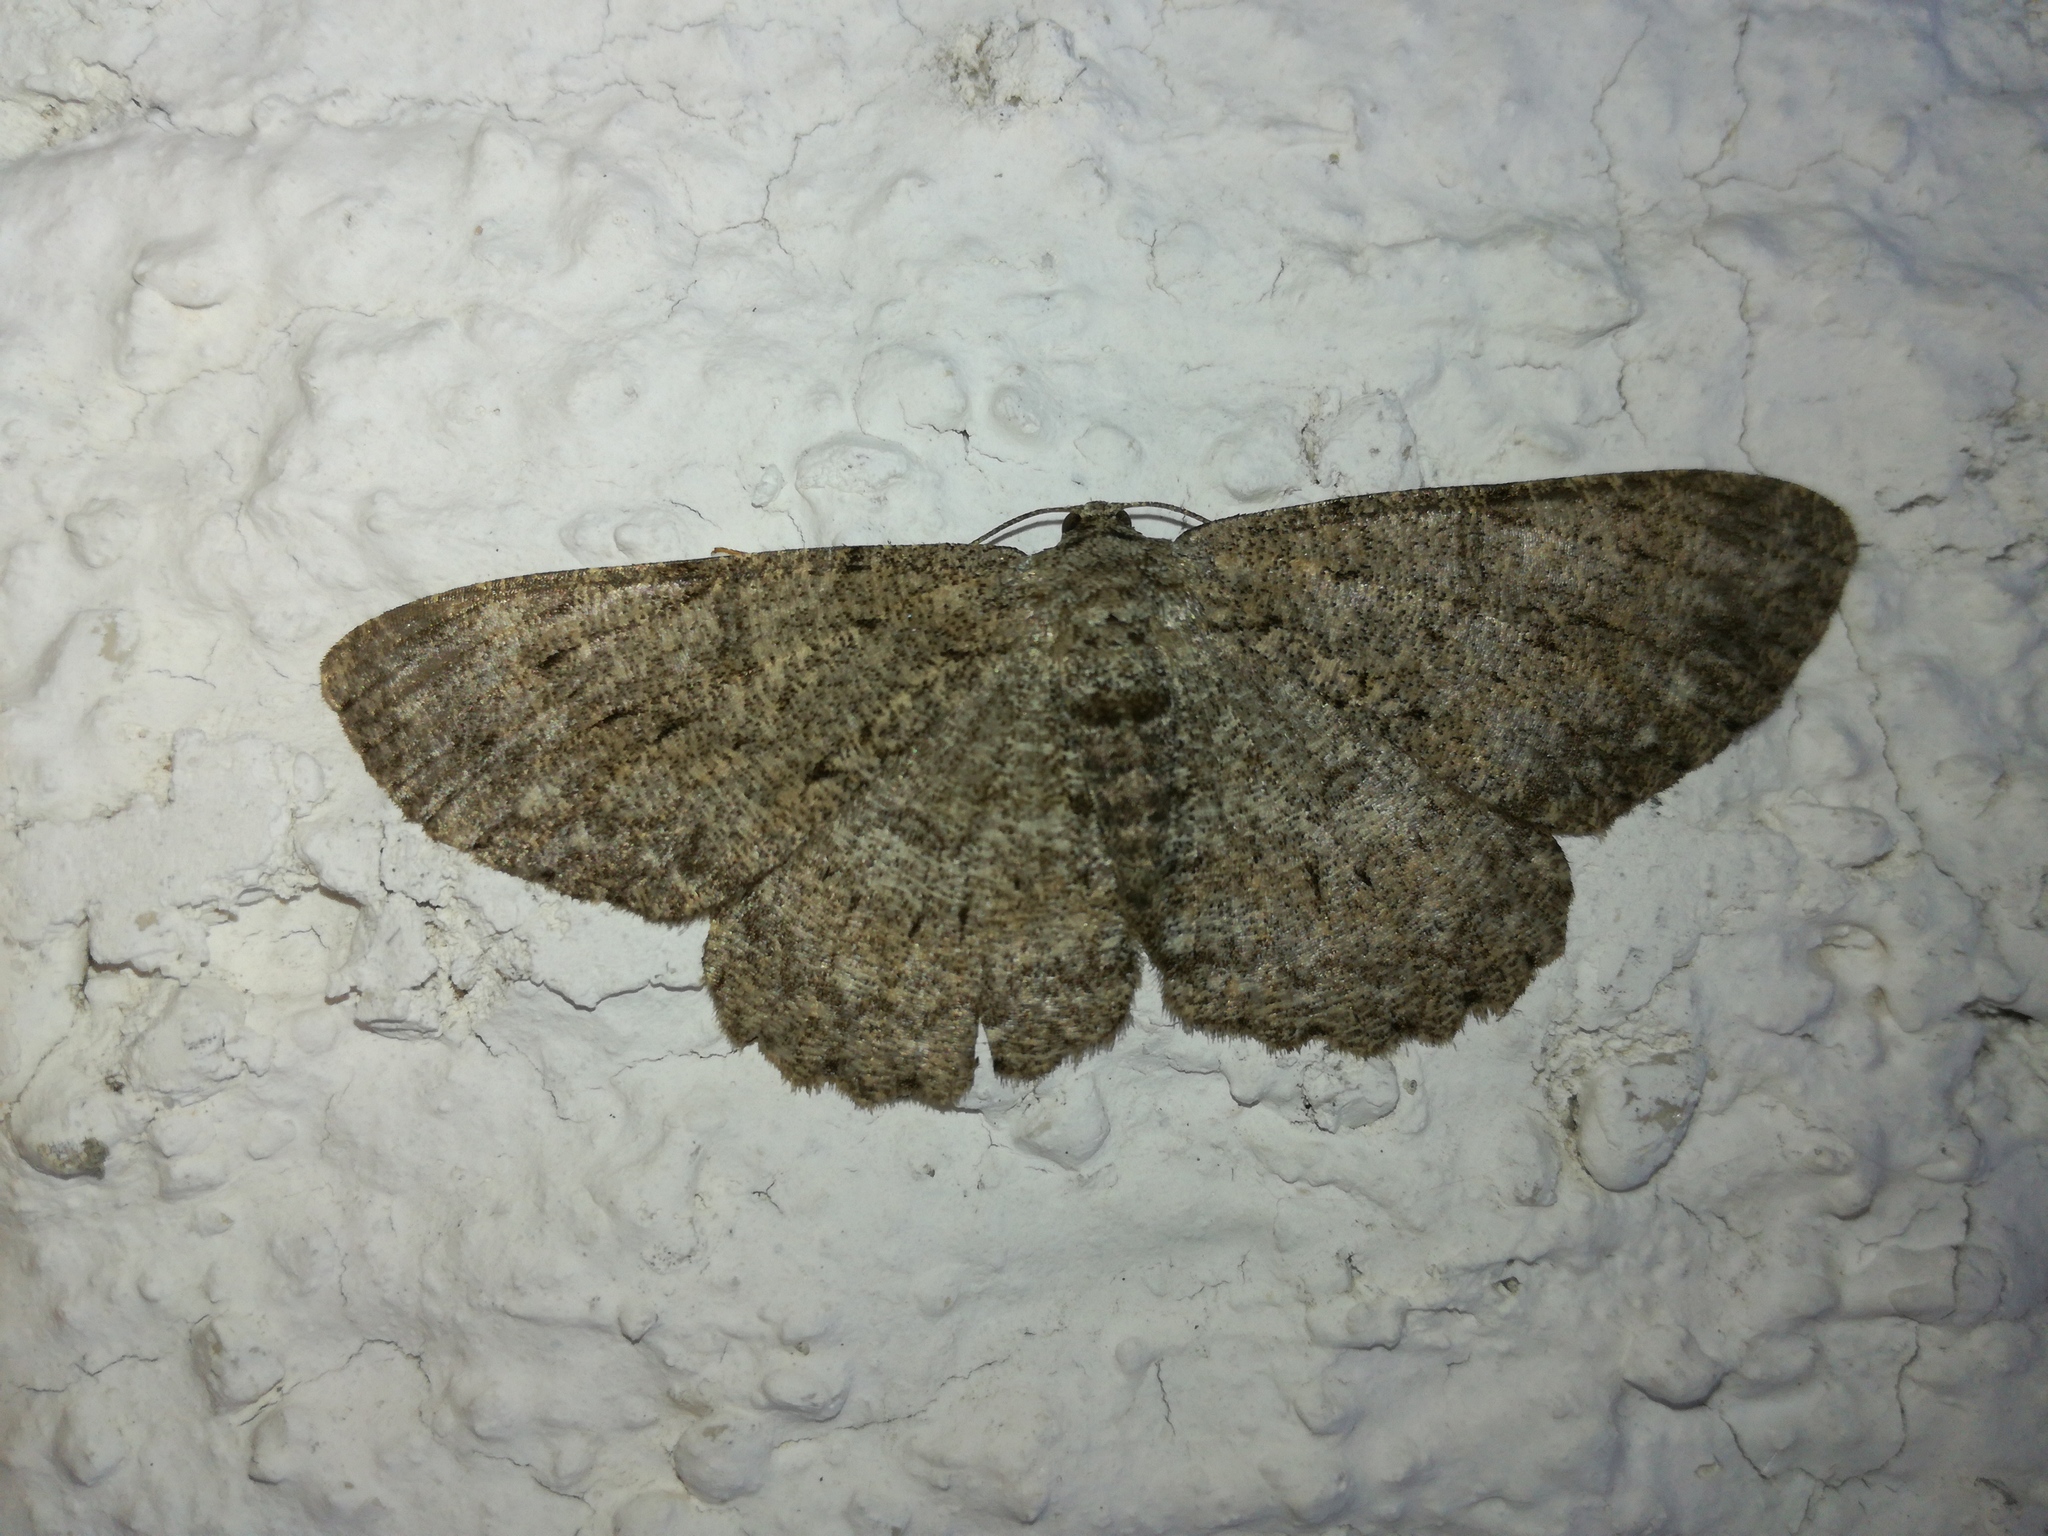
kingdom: Animalia
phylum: Arthropoda
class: Insecta
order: Lepidoptera
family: Geometridae
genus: Hypomecis
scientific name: Hypomecis punctinalis
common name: Pale oak beauty
